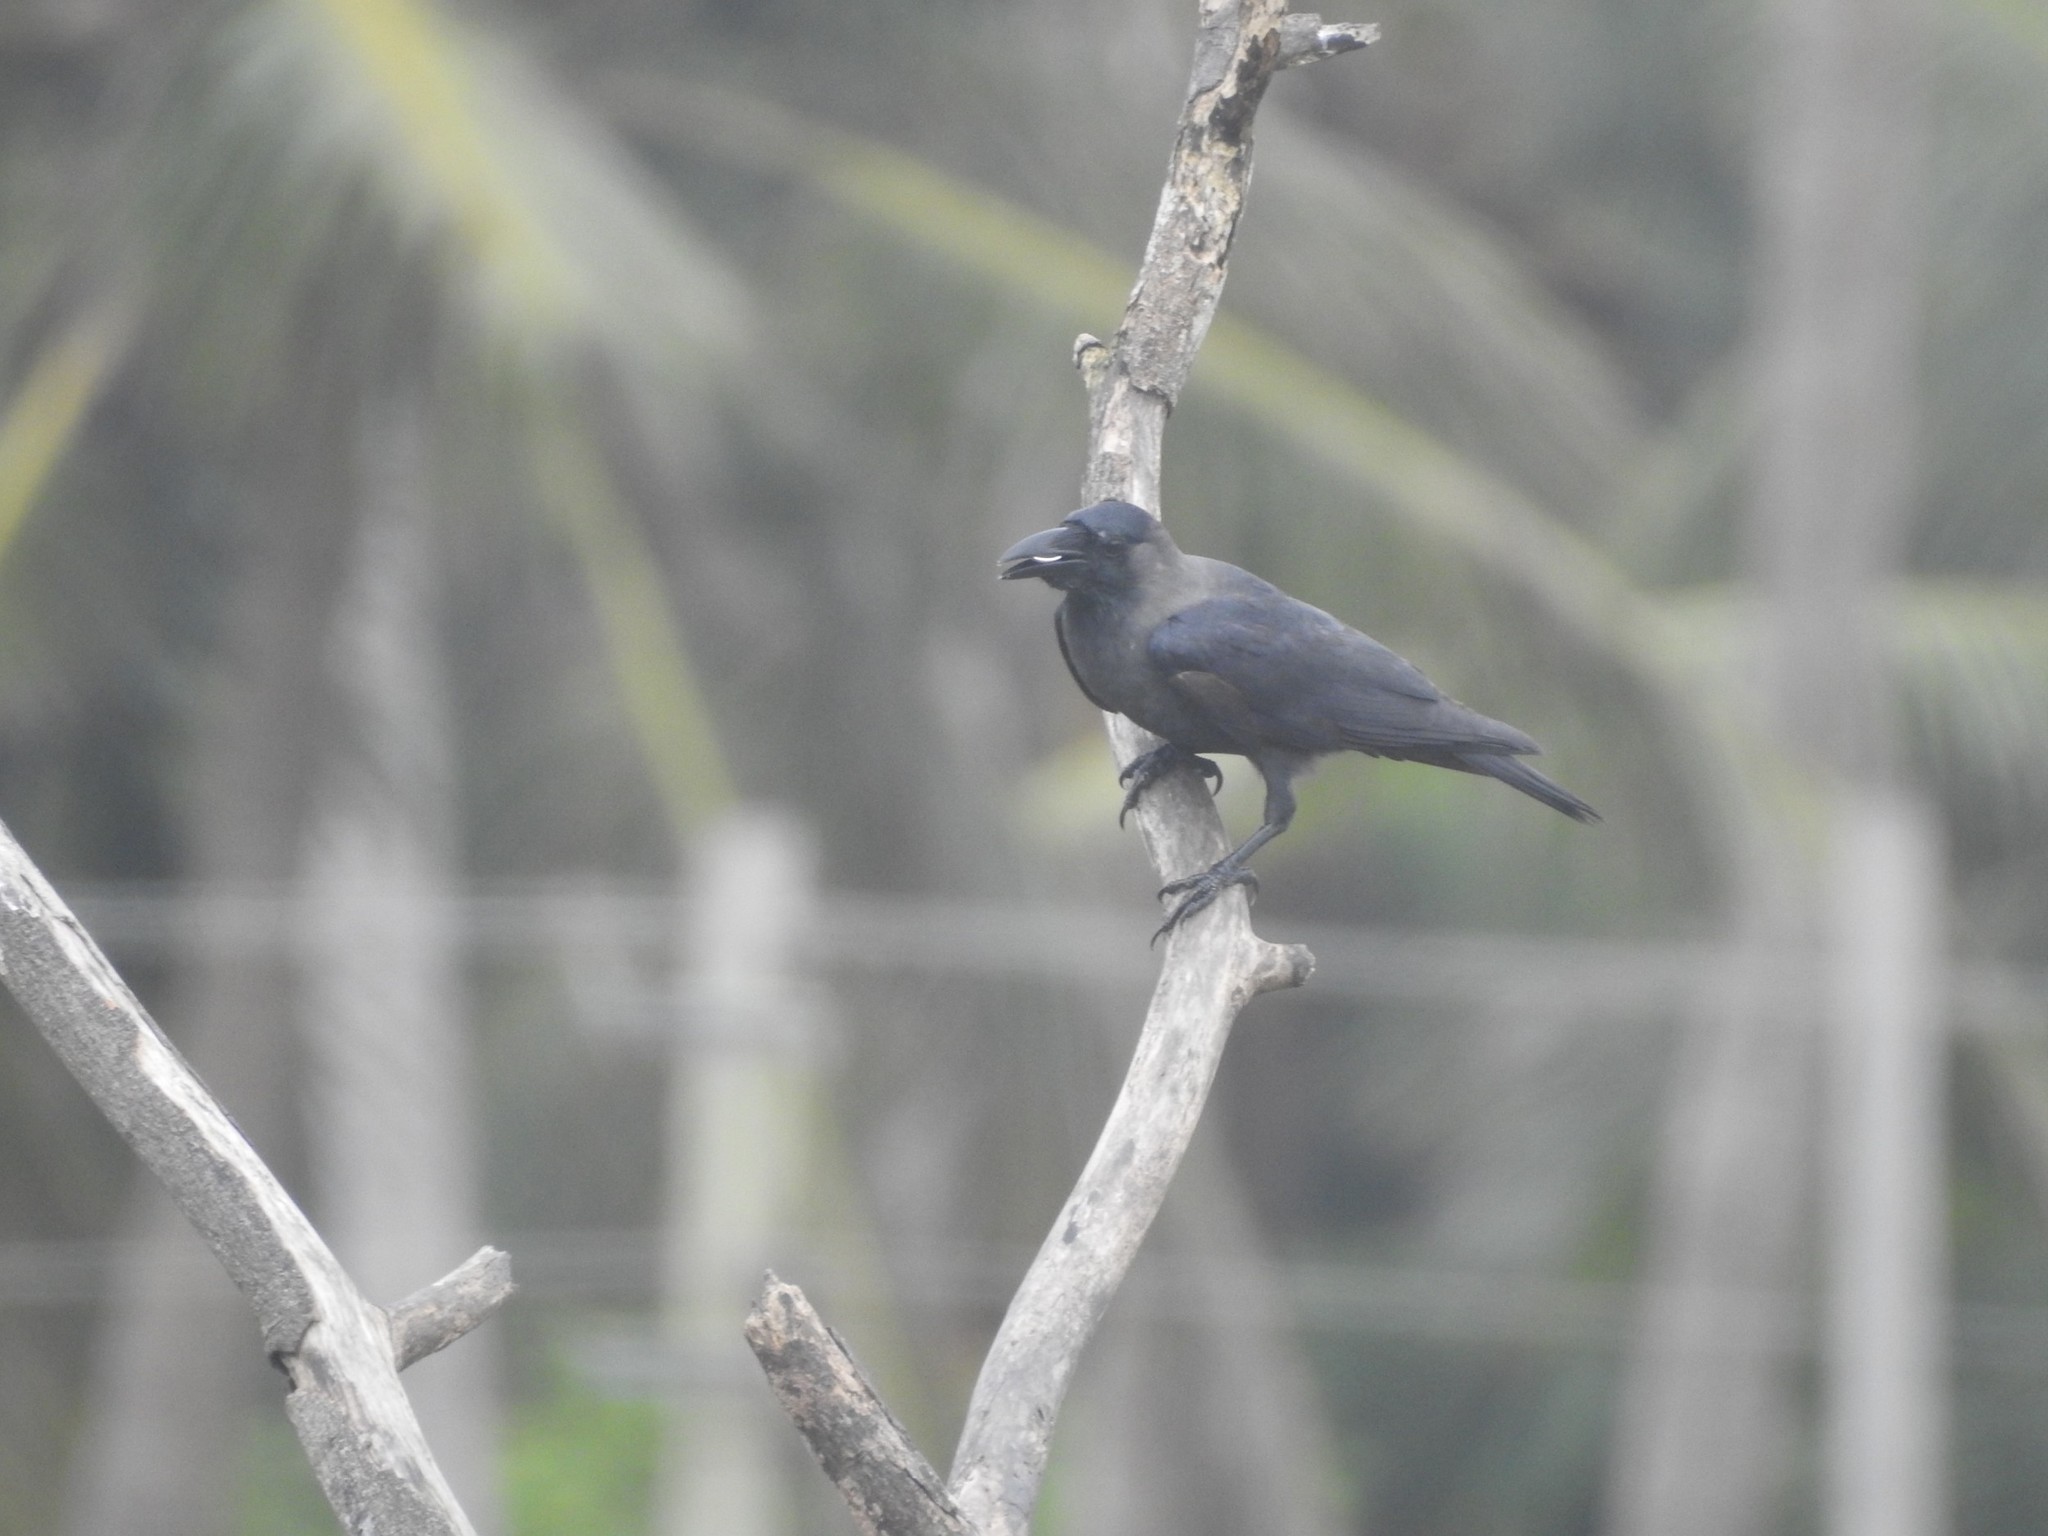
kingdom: Animalia
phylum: Chordata
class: Aves
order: Passeriformes
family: Corvidae
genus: Corvus
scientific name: Corvus splendens
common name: House crow
